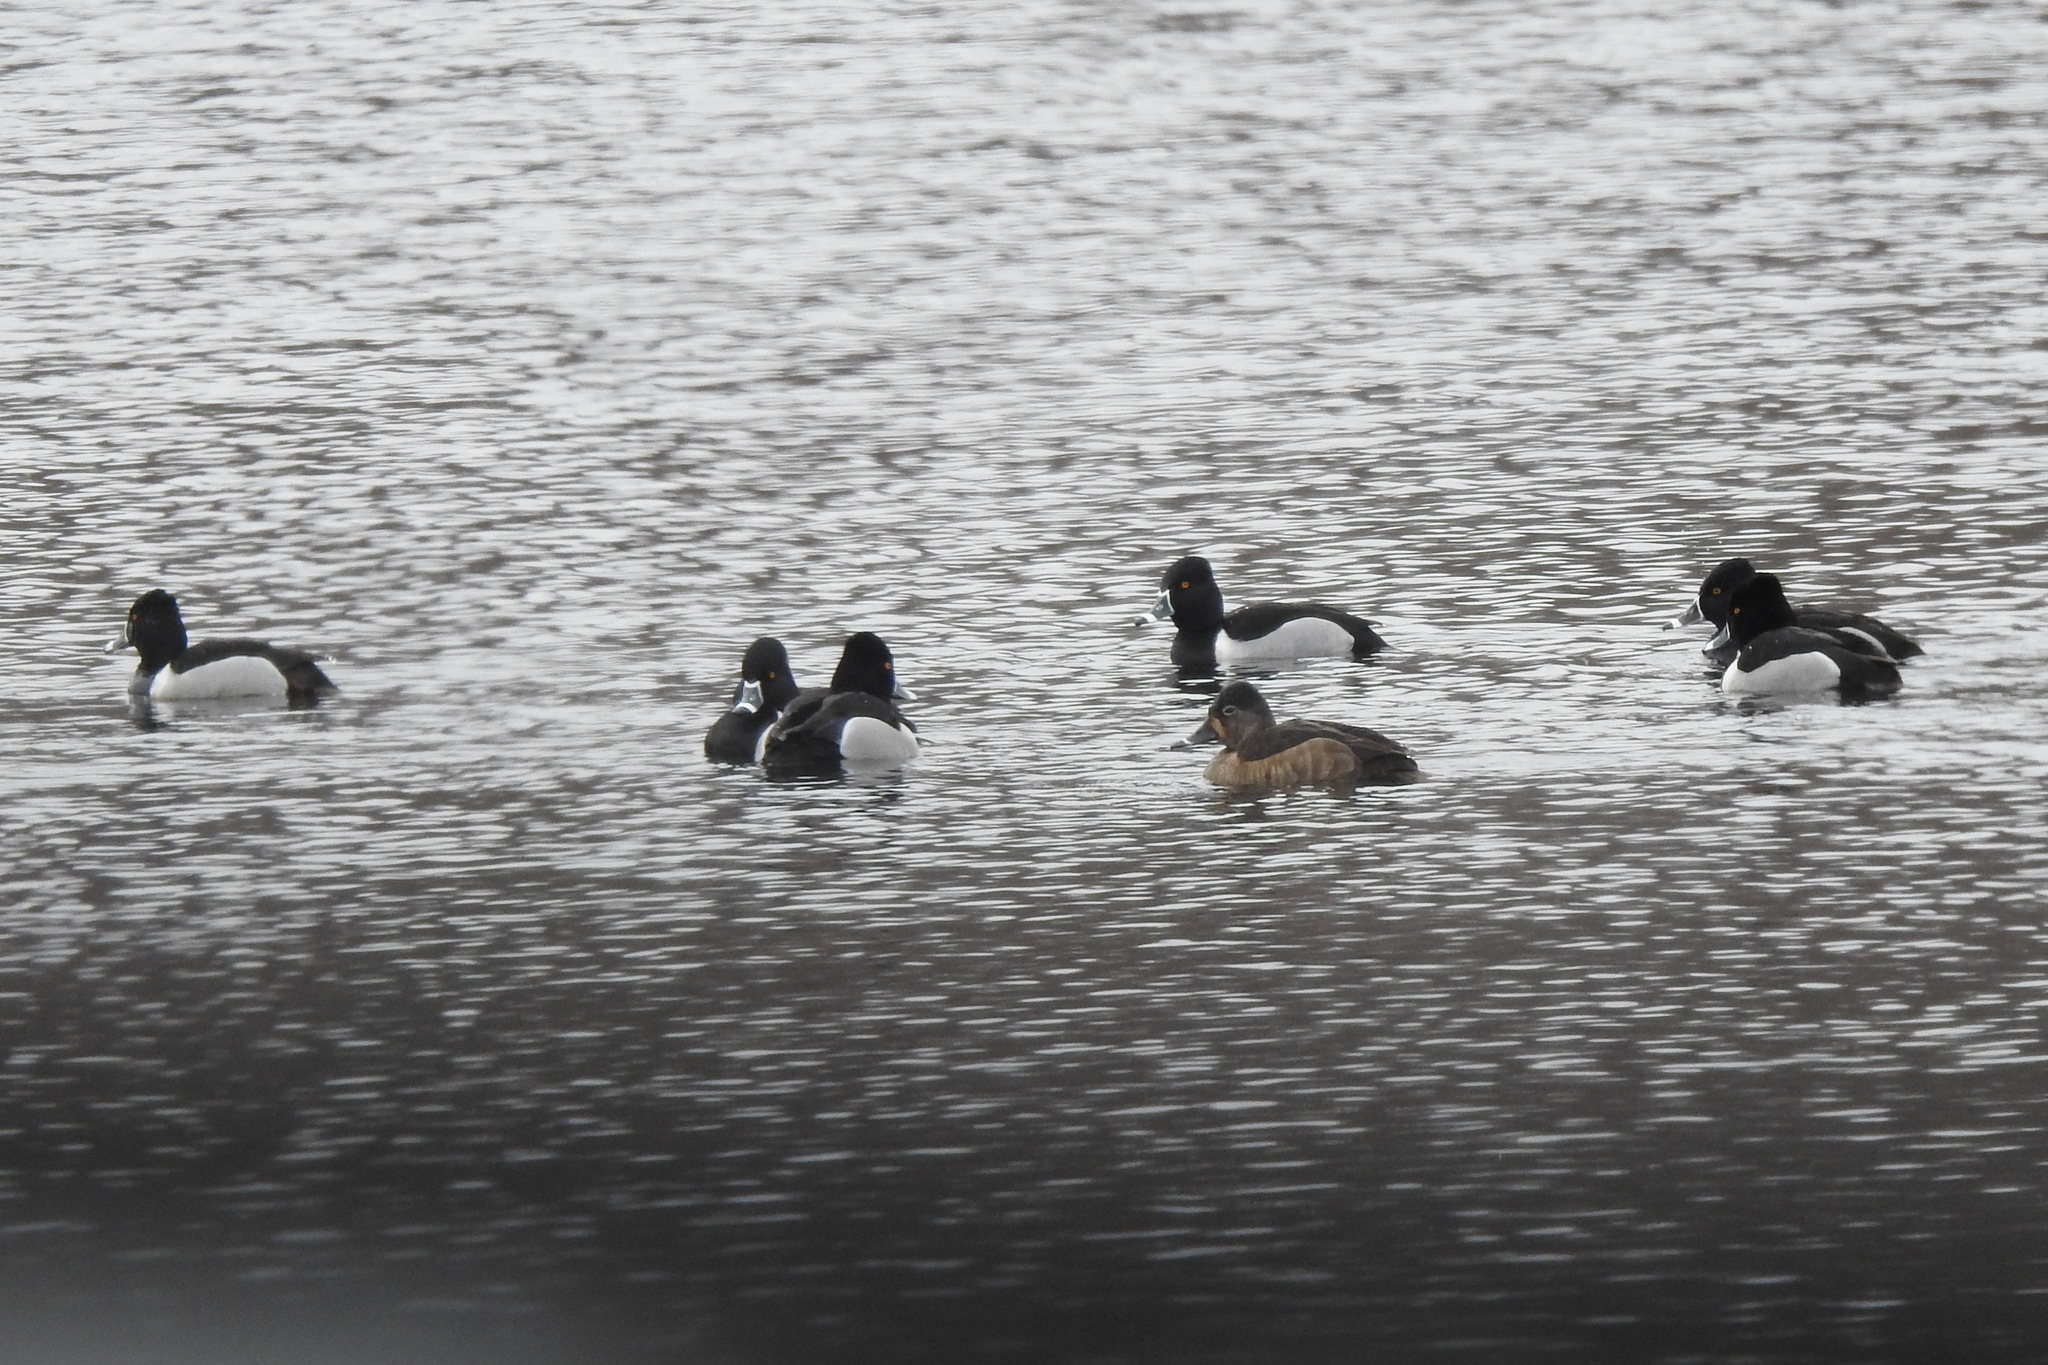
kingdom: Animalia
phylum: Chordata
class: Aves
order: Anseriformes
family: Anatidae
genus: Aythya
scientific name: Aythya collaris
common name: Ring-necked duck
